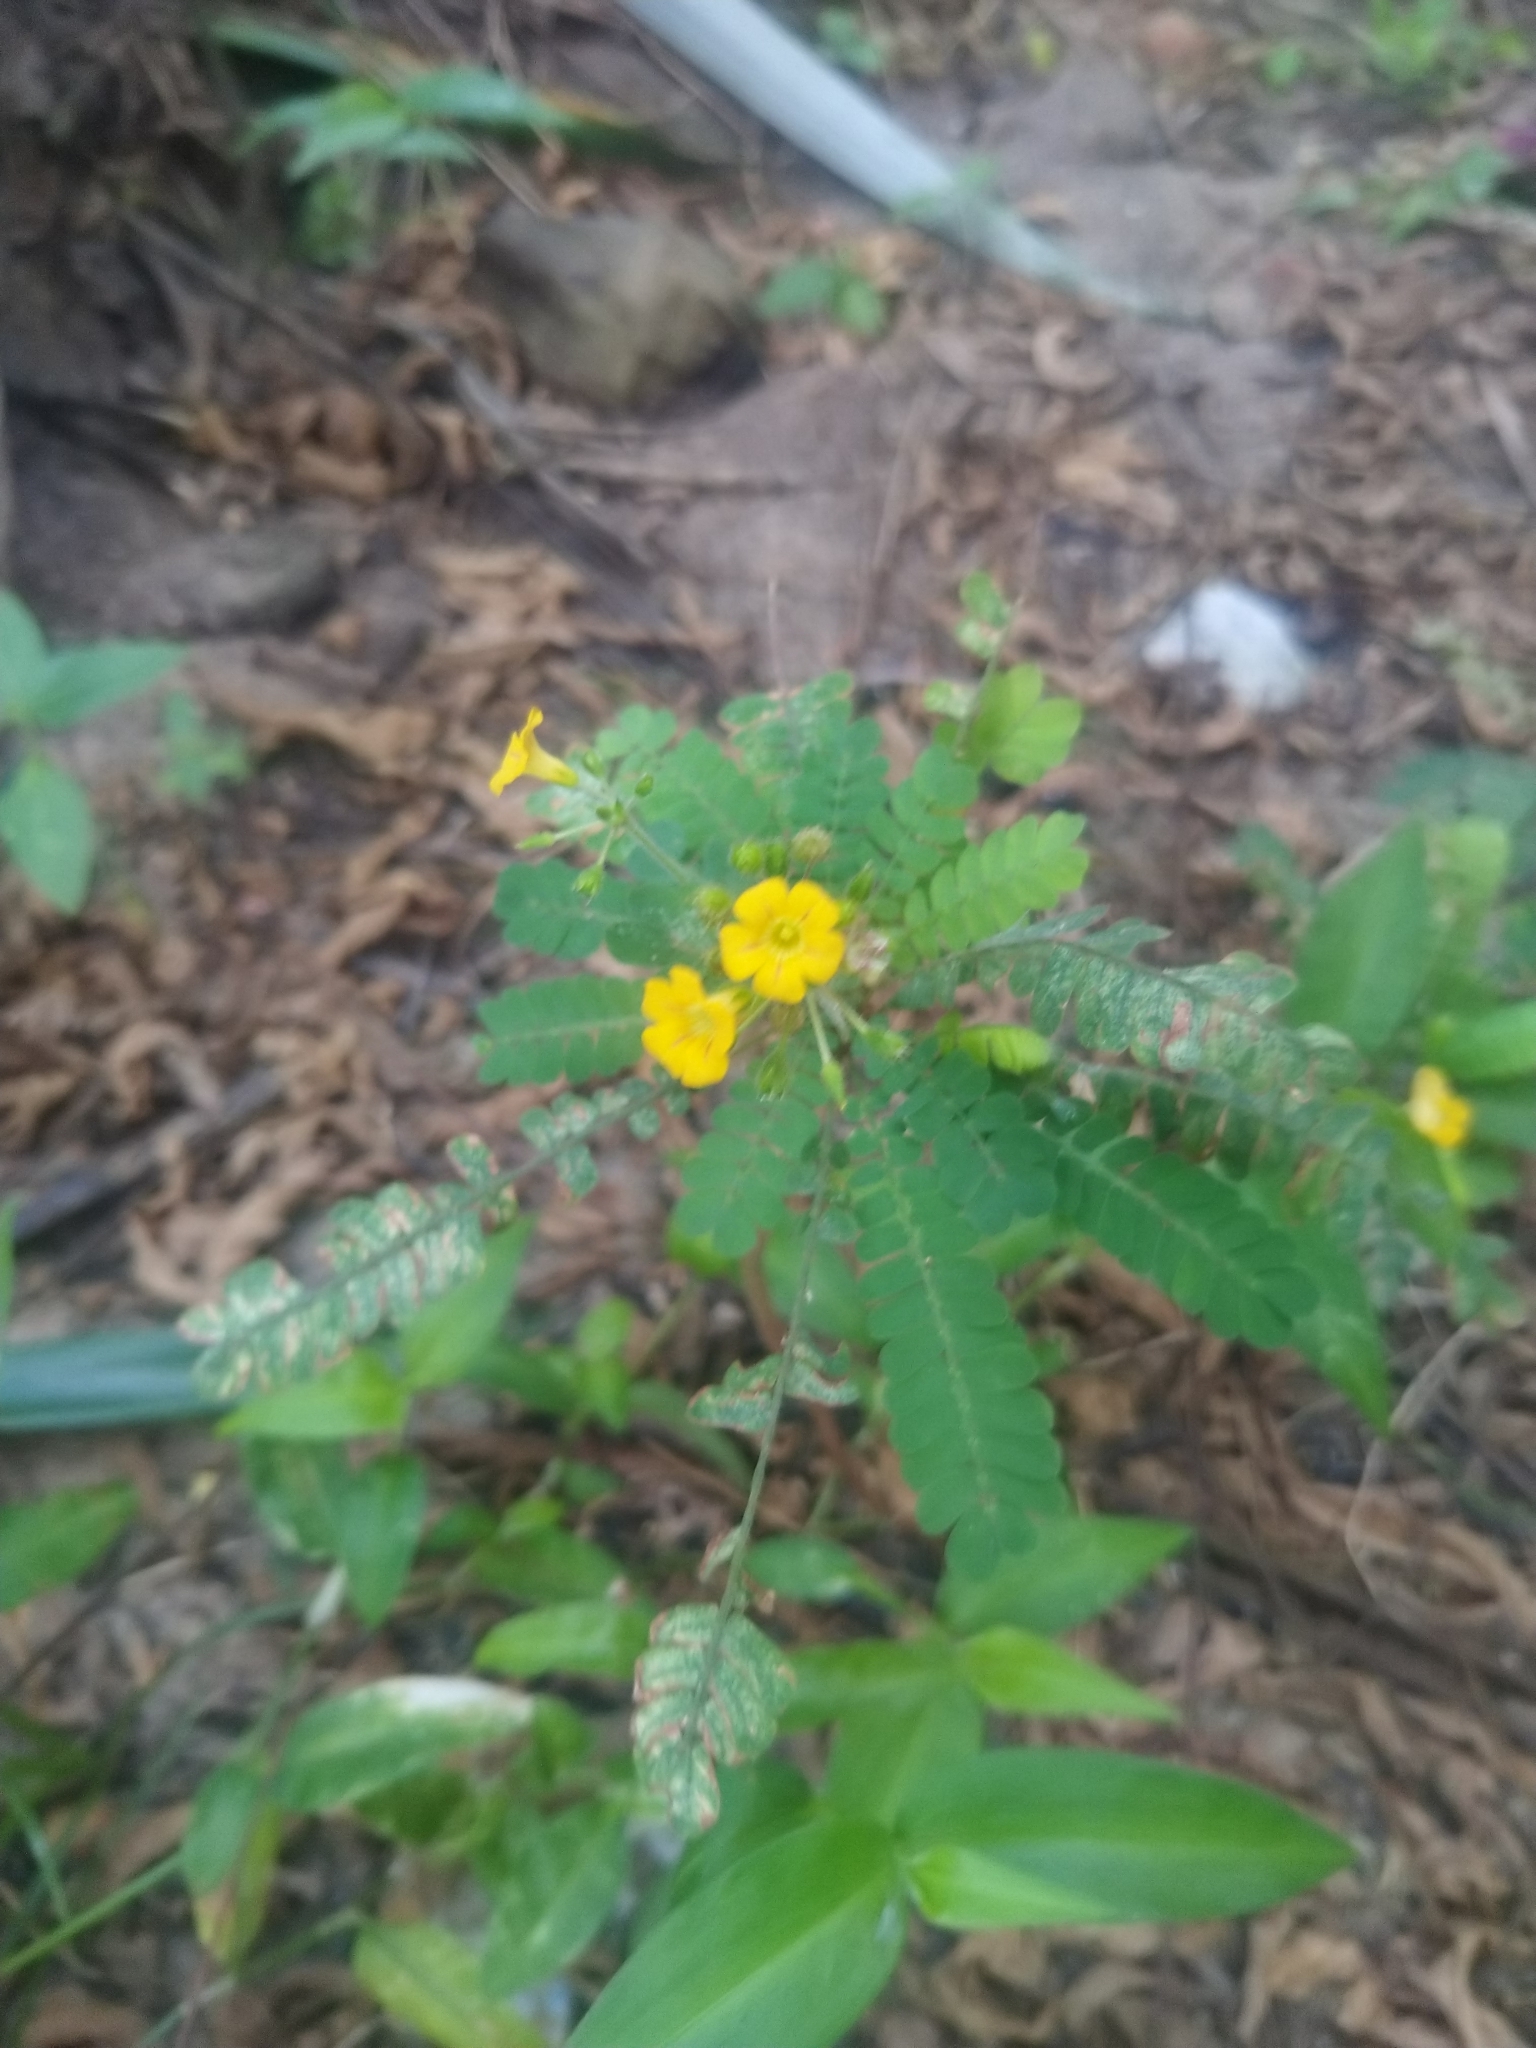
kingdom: Plantae
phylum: Tracheophyta
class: Magnoliopsida
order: Oxalidales
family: Oxalidaceae
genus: Biophytum
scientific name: Biophytum sensitivum
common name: Lifeplant
